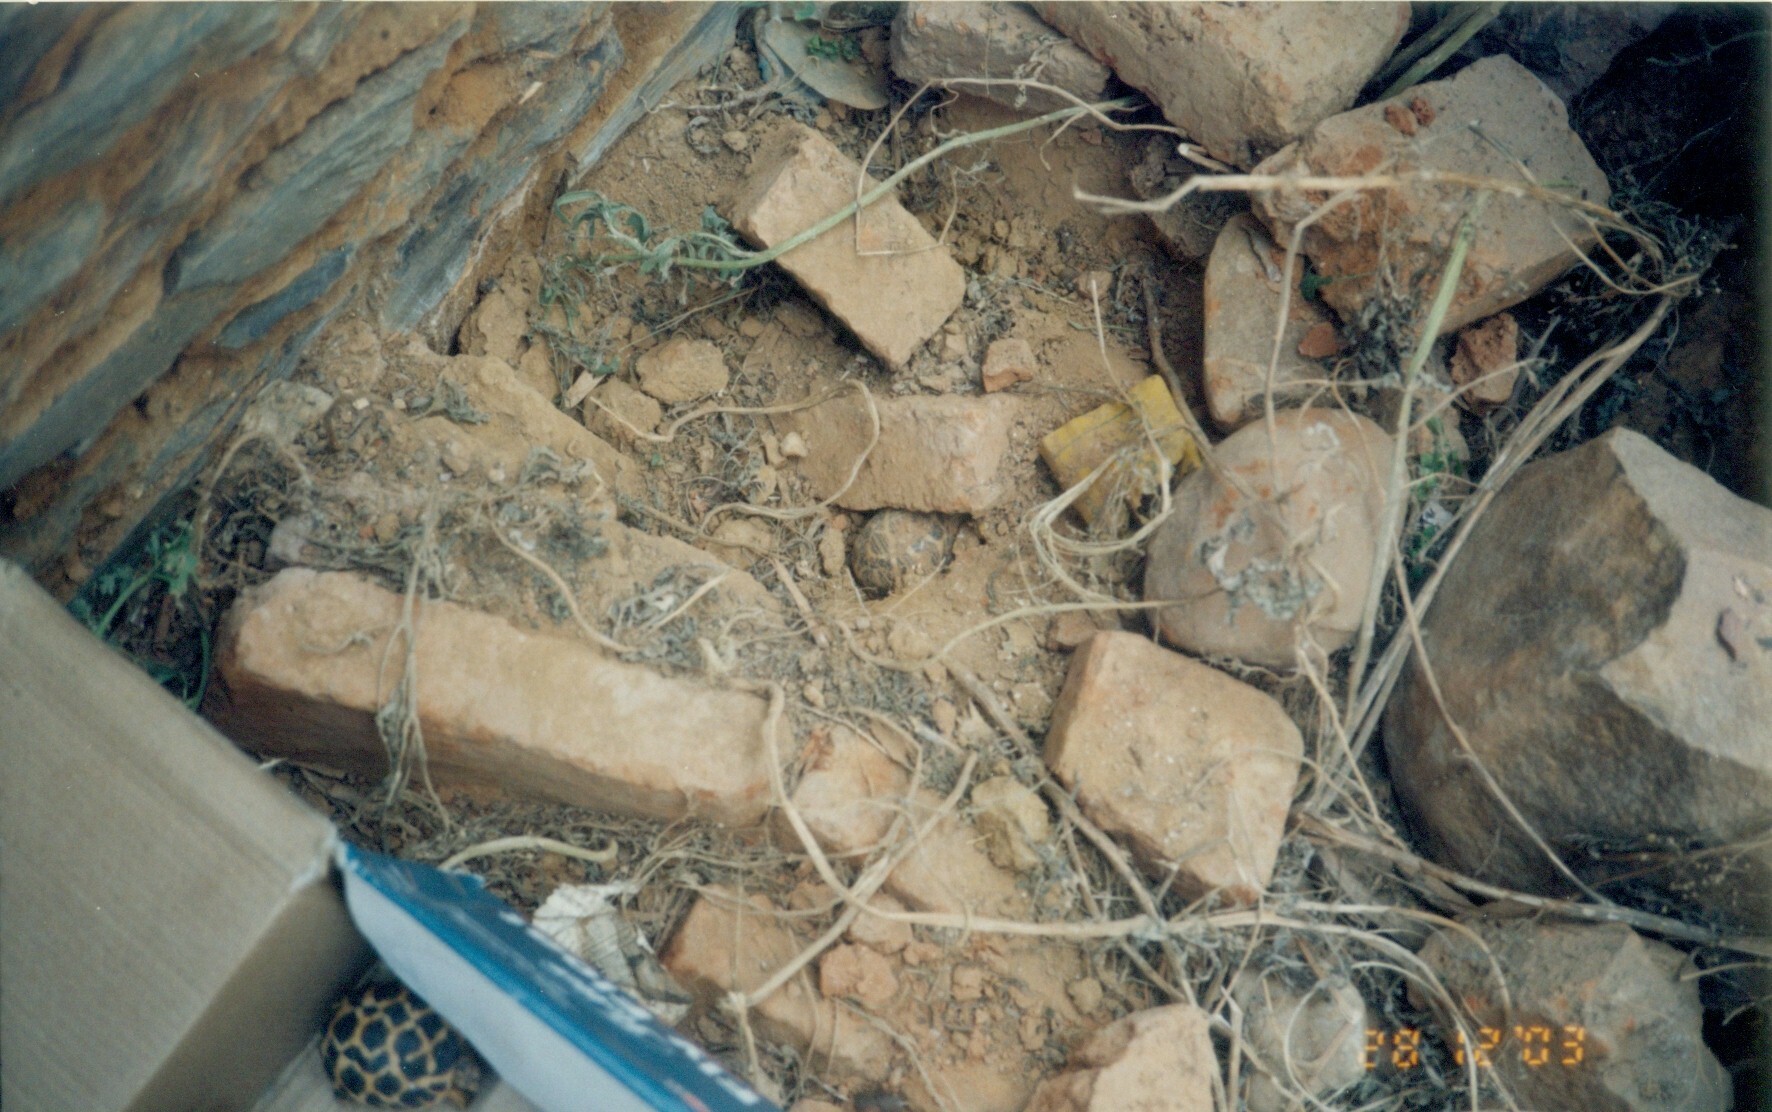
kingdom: Animalia
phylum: Chordata
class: Testudines
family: Testudinidae
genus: Geochelone
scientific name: Geochelone elegans
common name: Indian star tortoise
